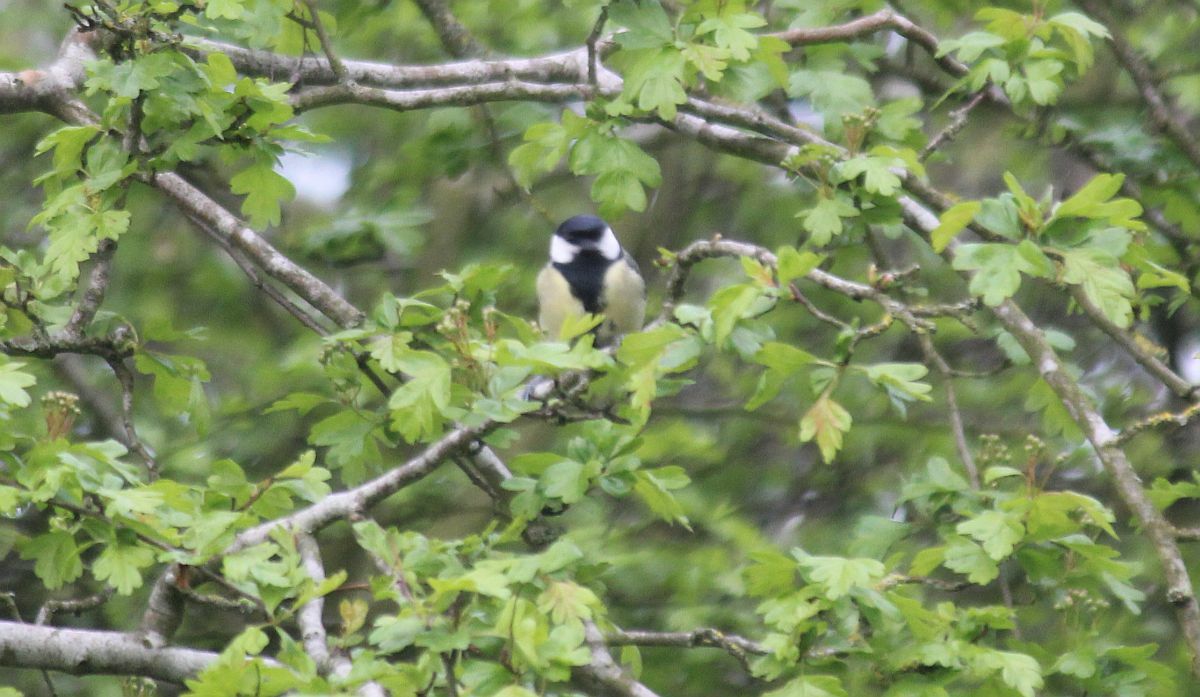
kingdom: Animalia
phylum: Chordata
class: Aves
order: Passeriformes
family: Paridae
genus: Parus
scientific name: Parus major
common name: Great tit
